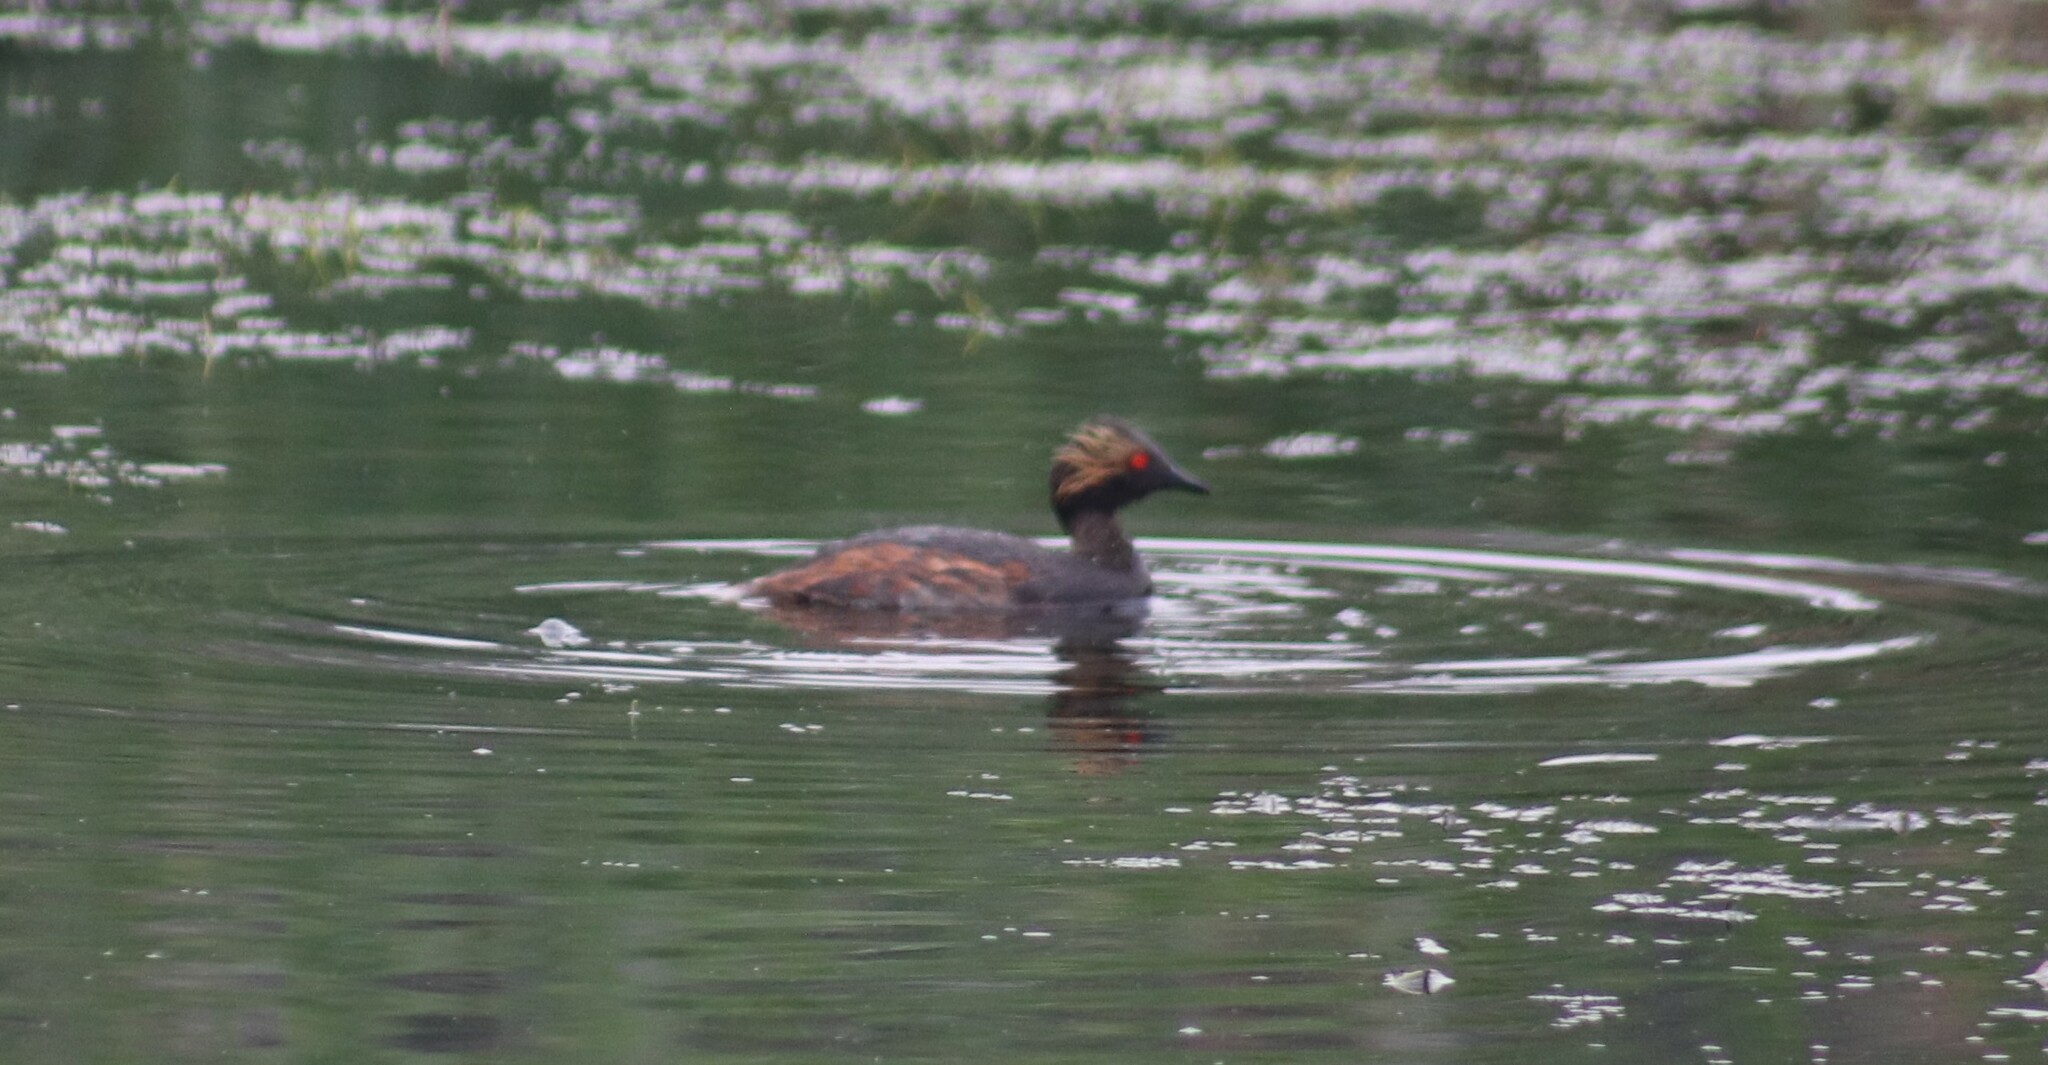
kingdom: Animalia
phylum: Chordata
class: Aves
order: Podicipediformes
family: Podicipedidae
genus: Podiceps
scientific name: Podiceps nigricollis
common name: Black-necked grebe
